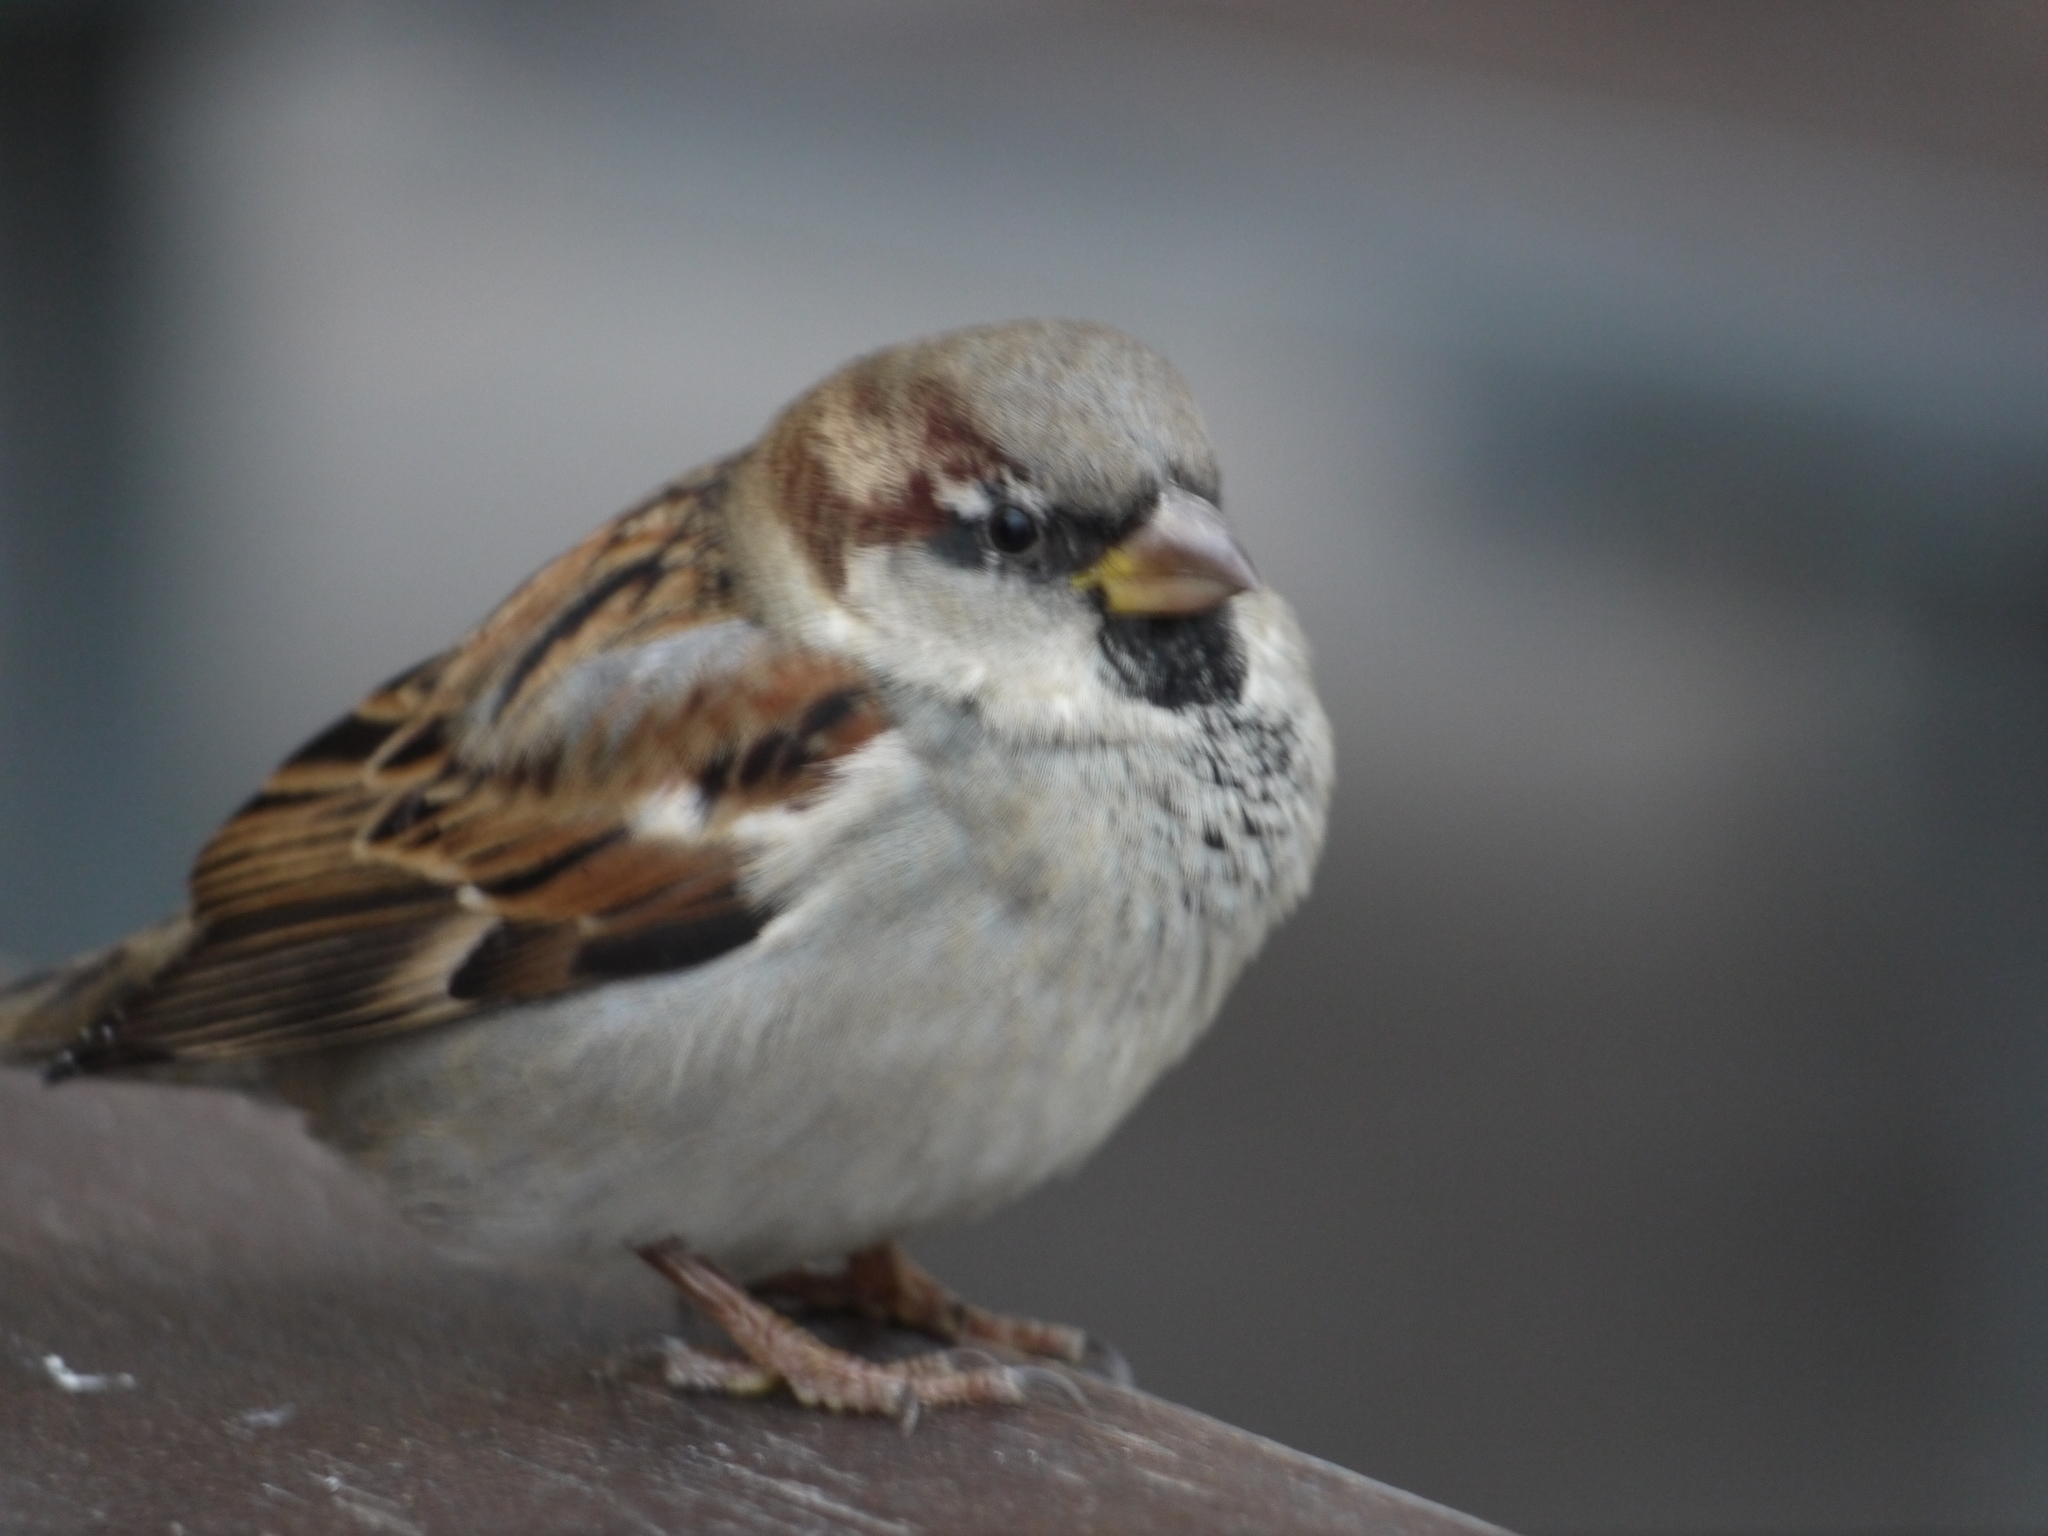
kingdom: Animalia
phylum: Chordata
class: Aves
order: Passeriformes
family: Passeridae
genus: Passer
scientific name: Passer domesticus
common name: House sparrow
